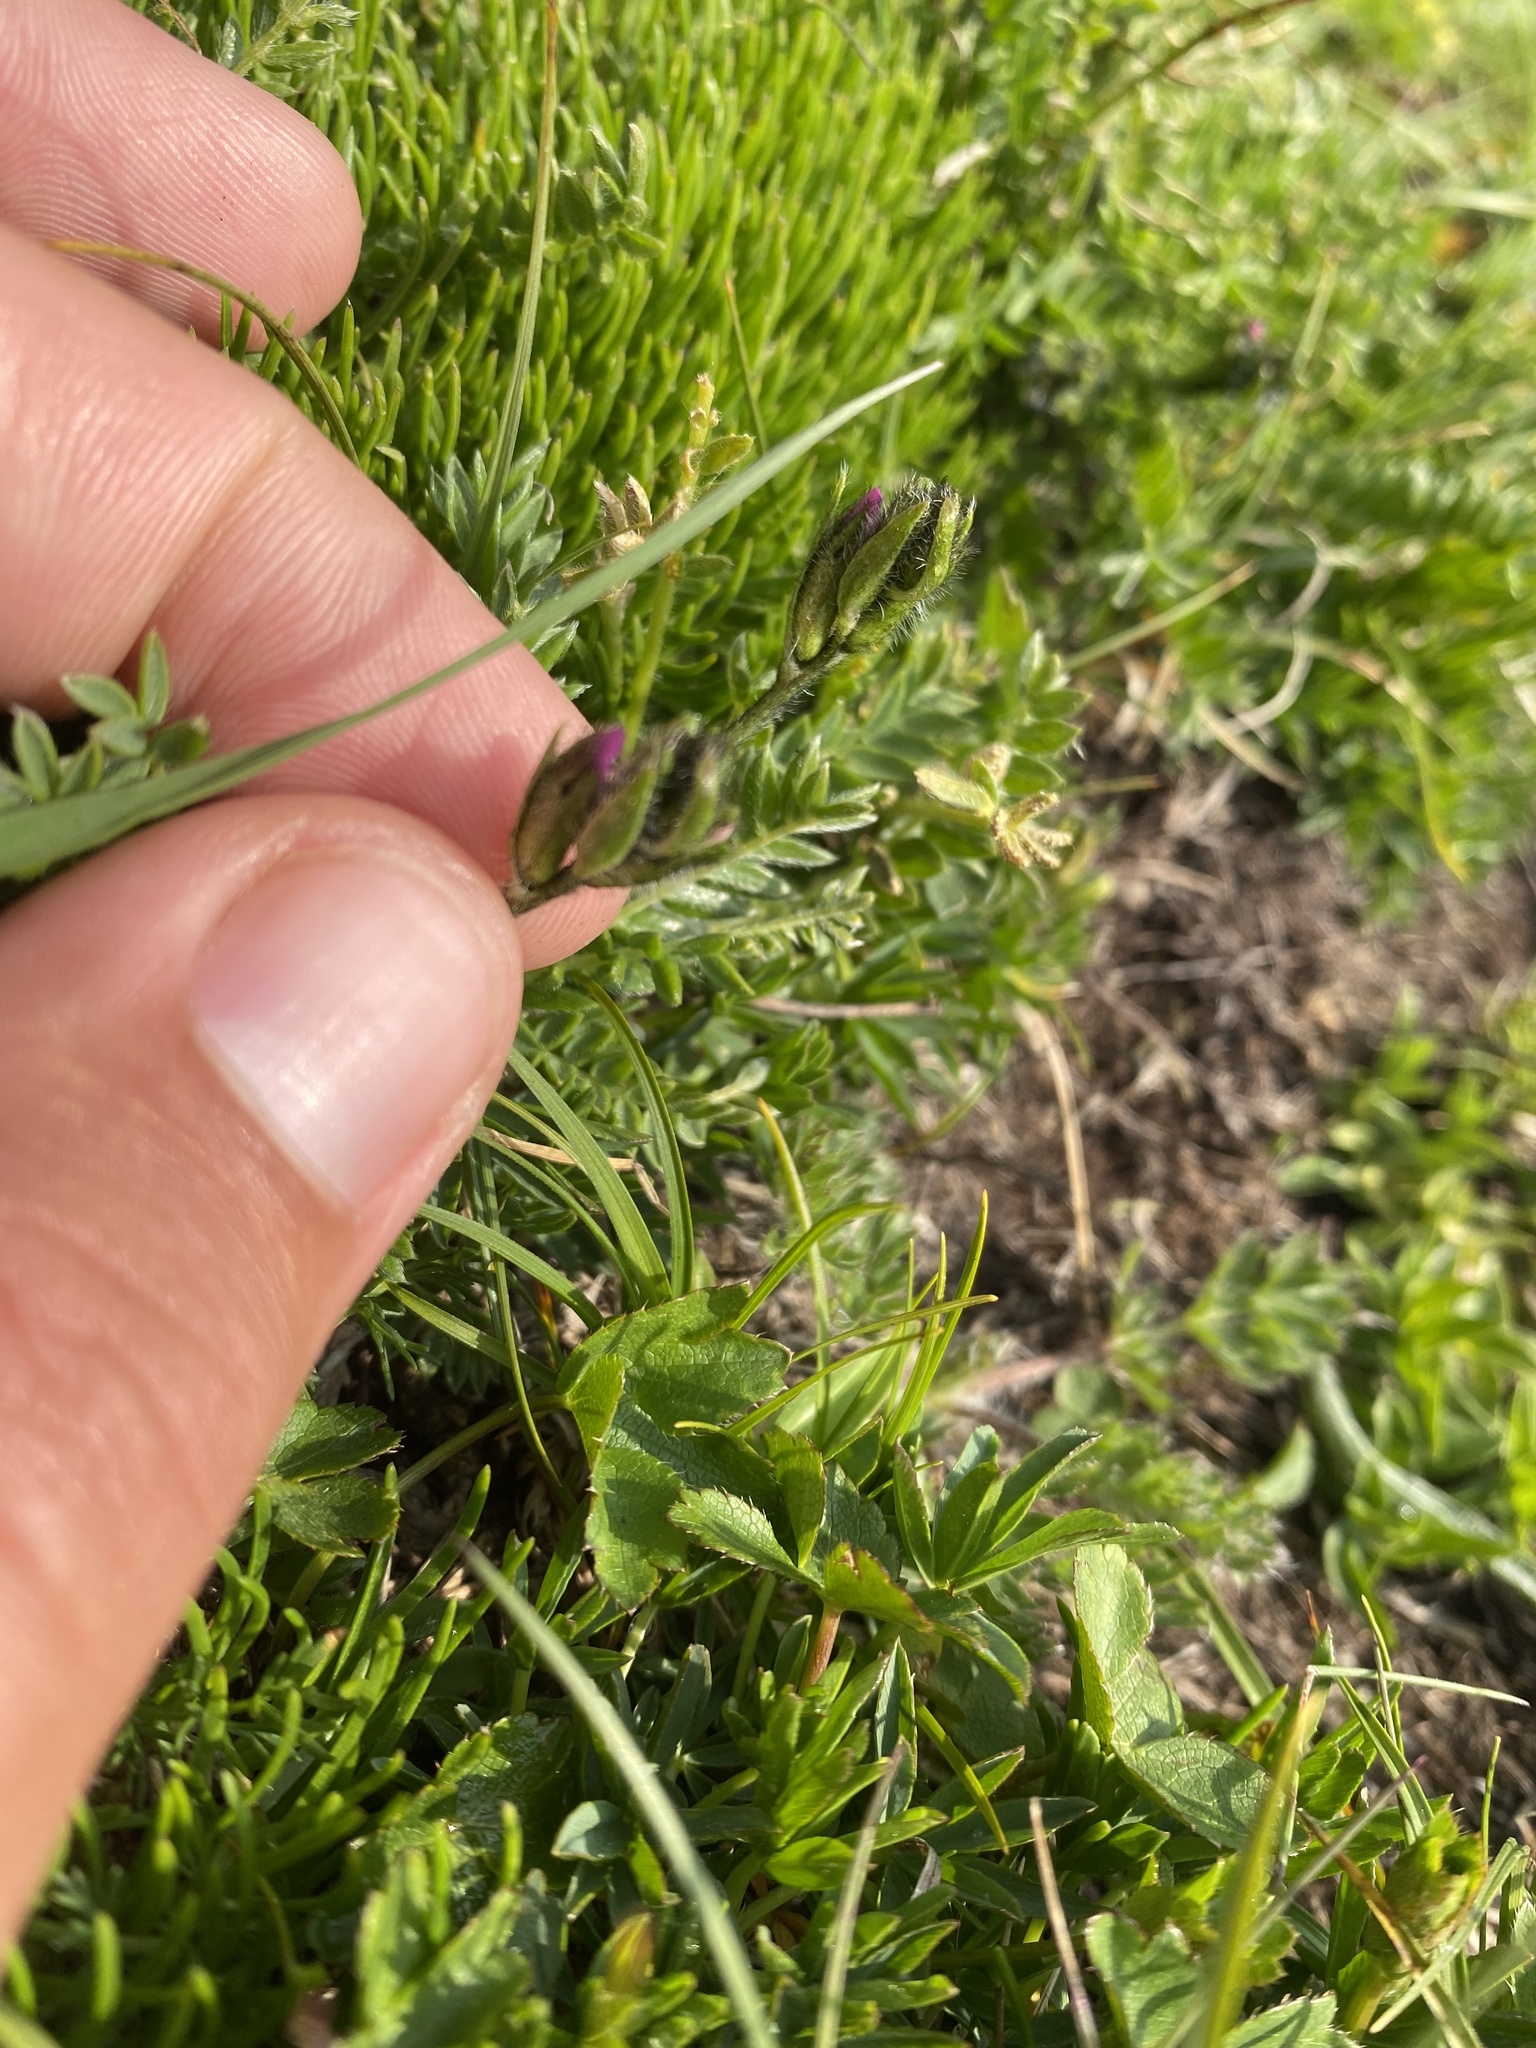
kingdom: Plantae
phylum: Tracheophyta
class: Magnoliopsida
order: Fabales
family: Fabaceae
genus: Oxytropis
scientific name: Oxytropis lazica
